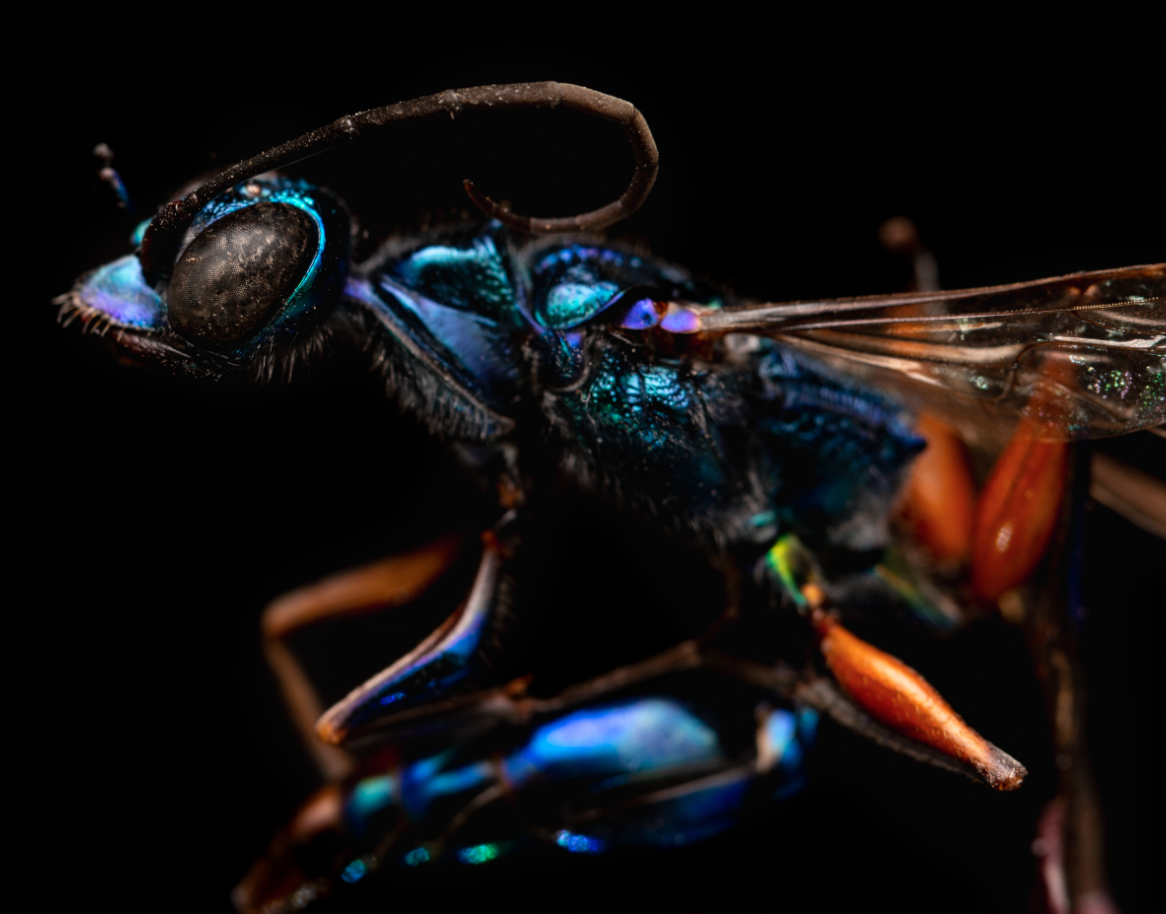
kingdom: Animalia
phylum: Arthropoda
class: Insecta
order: Hymenoptera
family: Ampulicidae
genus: Ampulex
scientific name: Ampulex dissector
